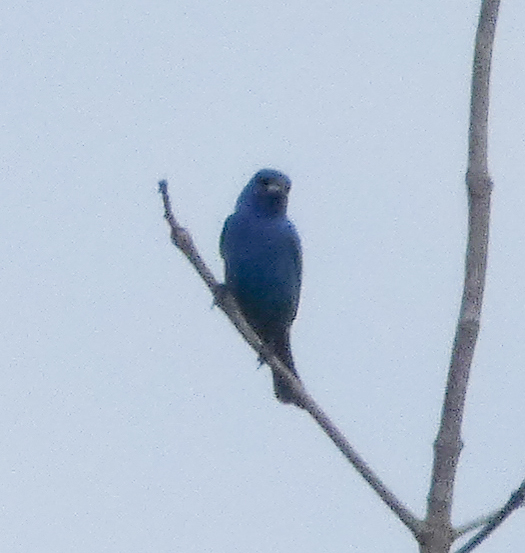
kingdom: Animalia
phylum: Chordata
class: Aves
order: Passeriformes
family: Cardinalidae
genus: Passerina
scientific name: Passerina cyanea
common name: Indigo bunting
